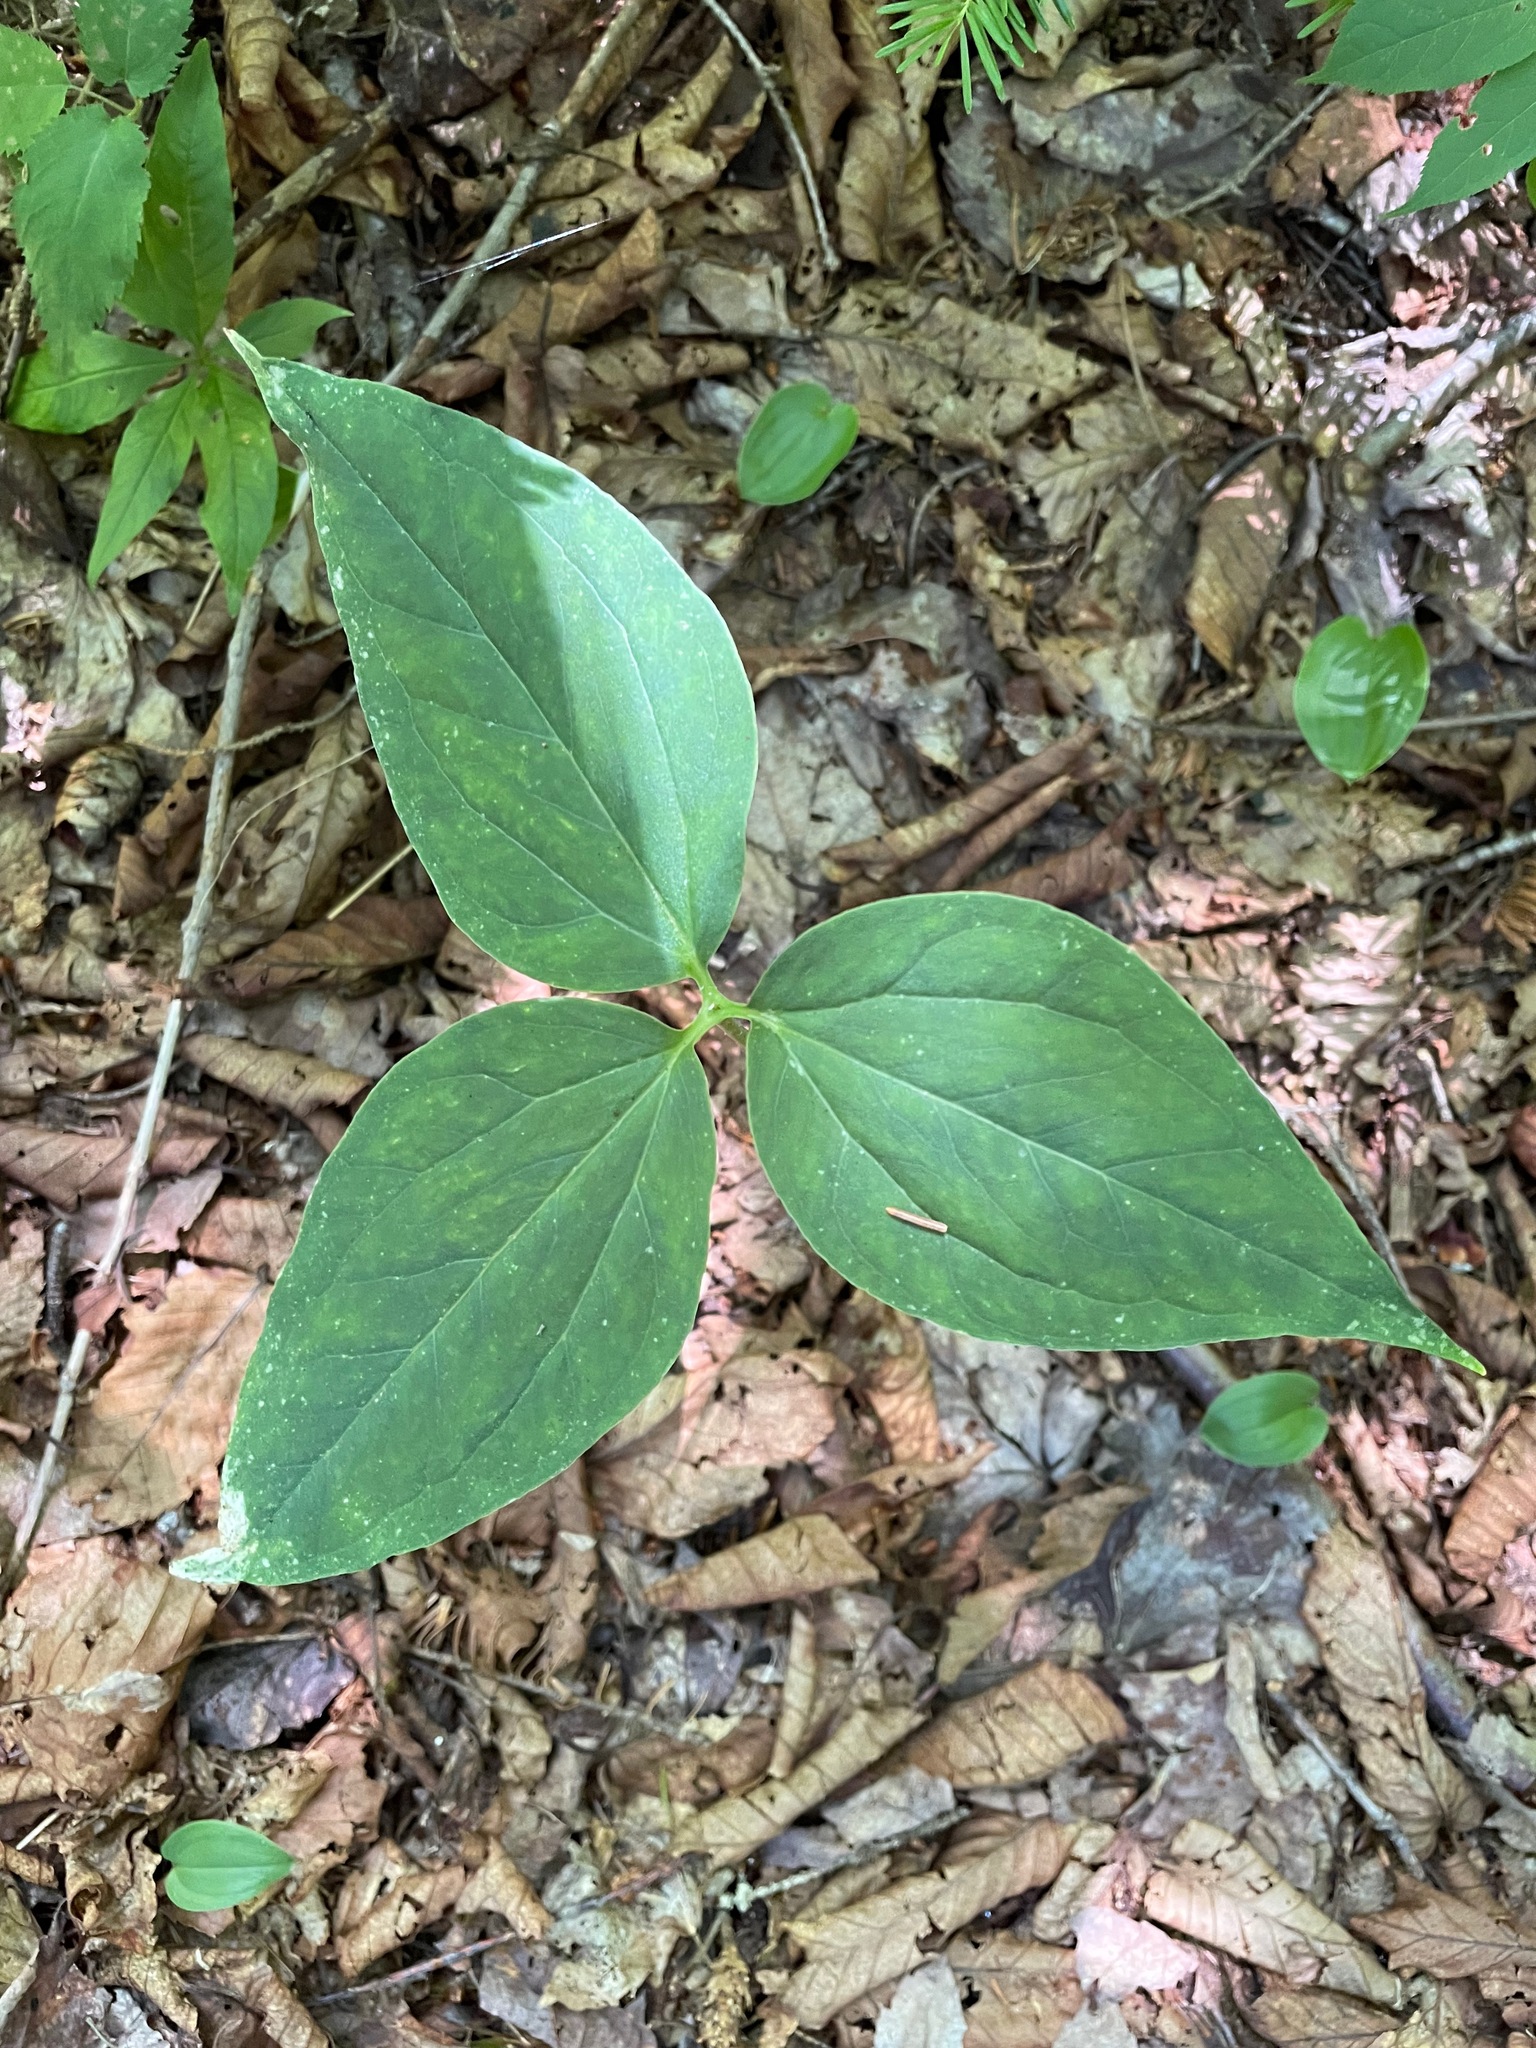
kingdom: Plantae
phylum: Tracheophyta
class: Liliopsida
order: Liliales
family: Melanthiaceae
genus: Trillium
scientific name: Trillium undulatum
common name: Paint trillium
